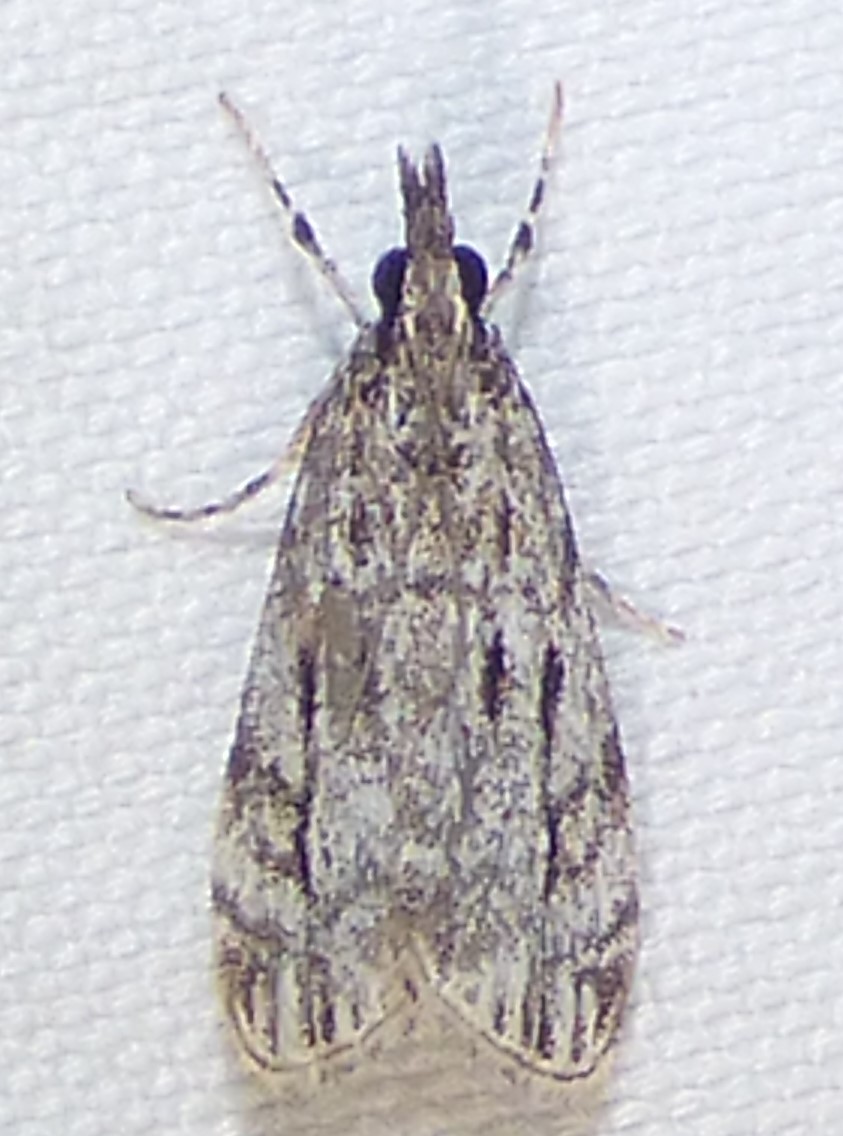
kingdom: Animalia
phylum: Arthropoda
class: Insecta
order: Lepidoptera
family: Crambidae
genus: Eudonia
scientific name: Eudonia strigalis
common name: Striped eudonia moth
